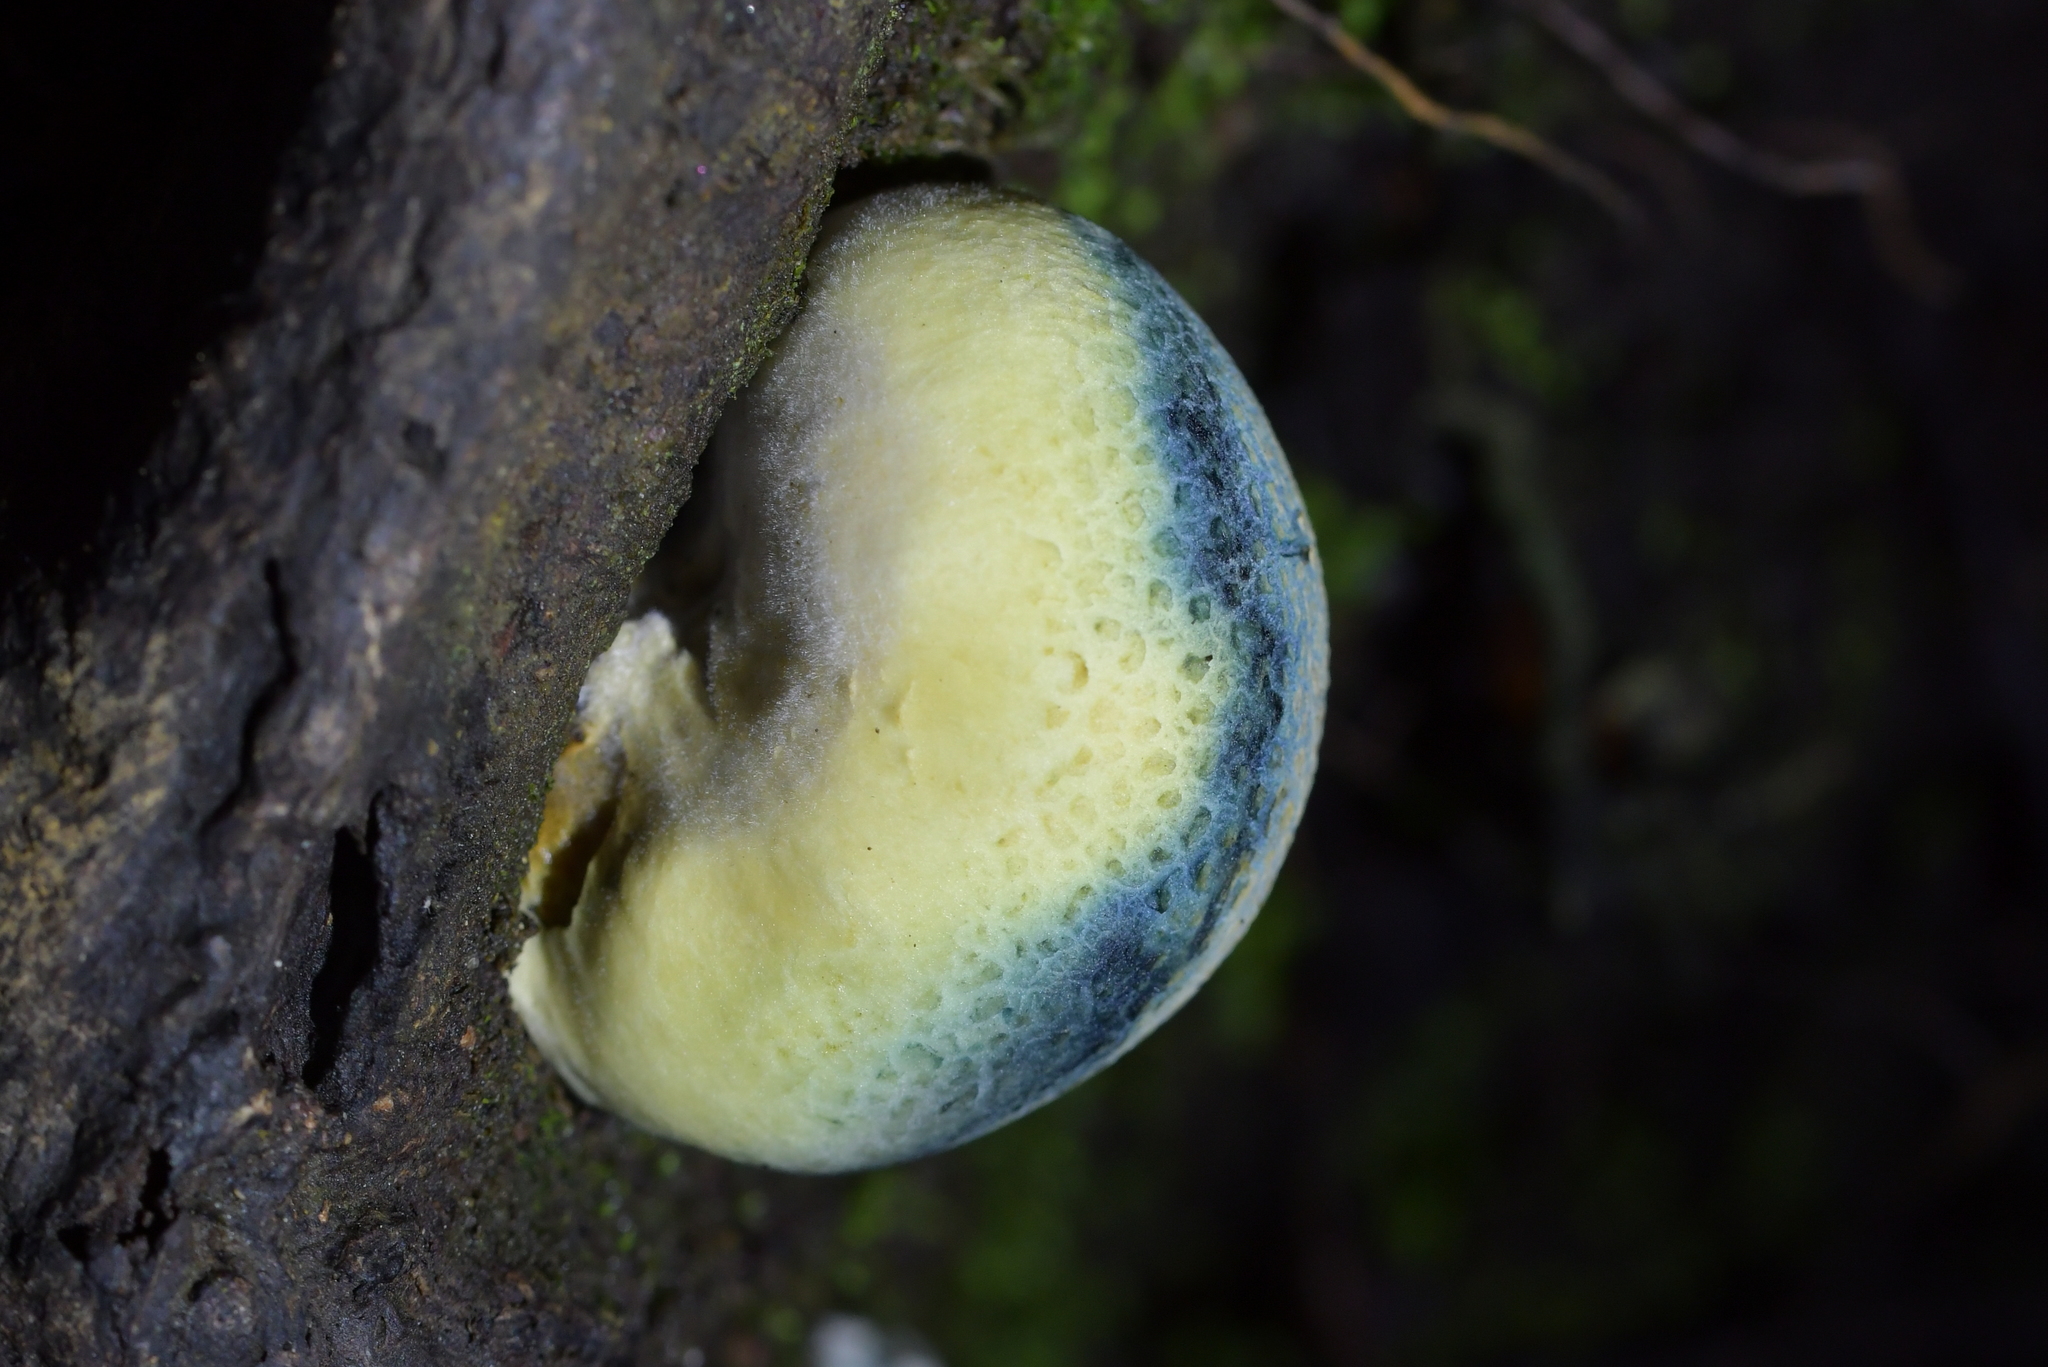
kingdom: Fungi
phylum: Basidiomycota
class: Agaricomycetes
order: Boletales
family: Boletaceae
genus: Leccinum
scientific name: Leccinum pachyderme
